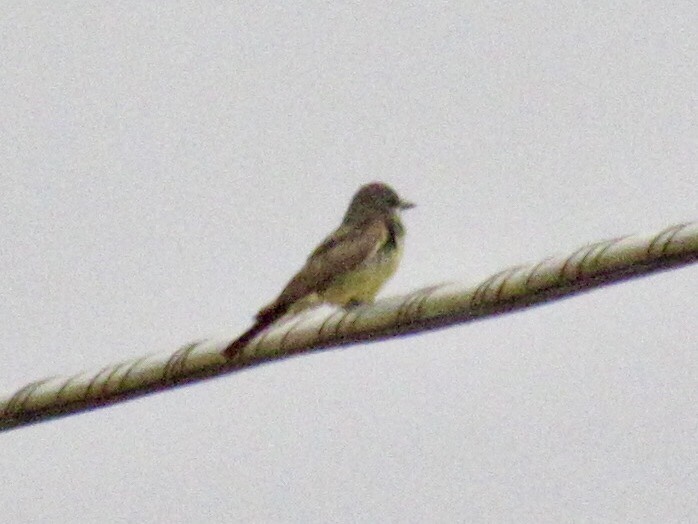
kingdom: Animalia
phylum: Chordata
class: Aves
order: Passeriformes
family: Tyrannidae
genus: Tyrannus
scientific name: Tyrannus vociferans
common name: Cassin's kingbird
